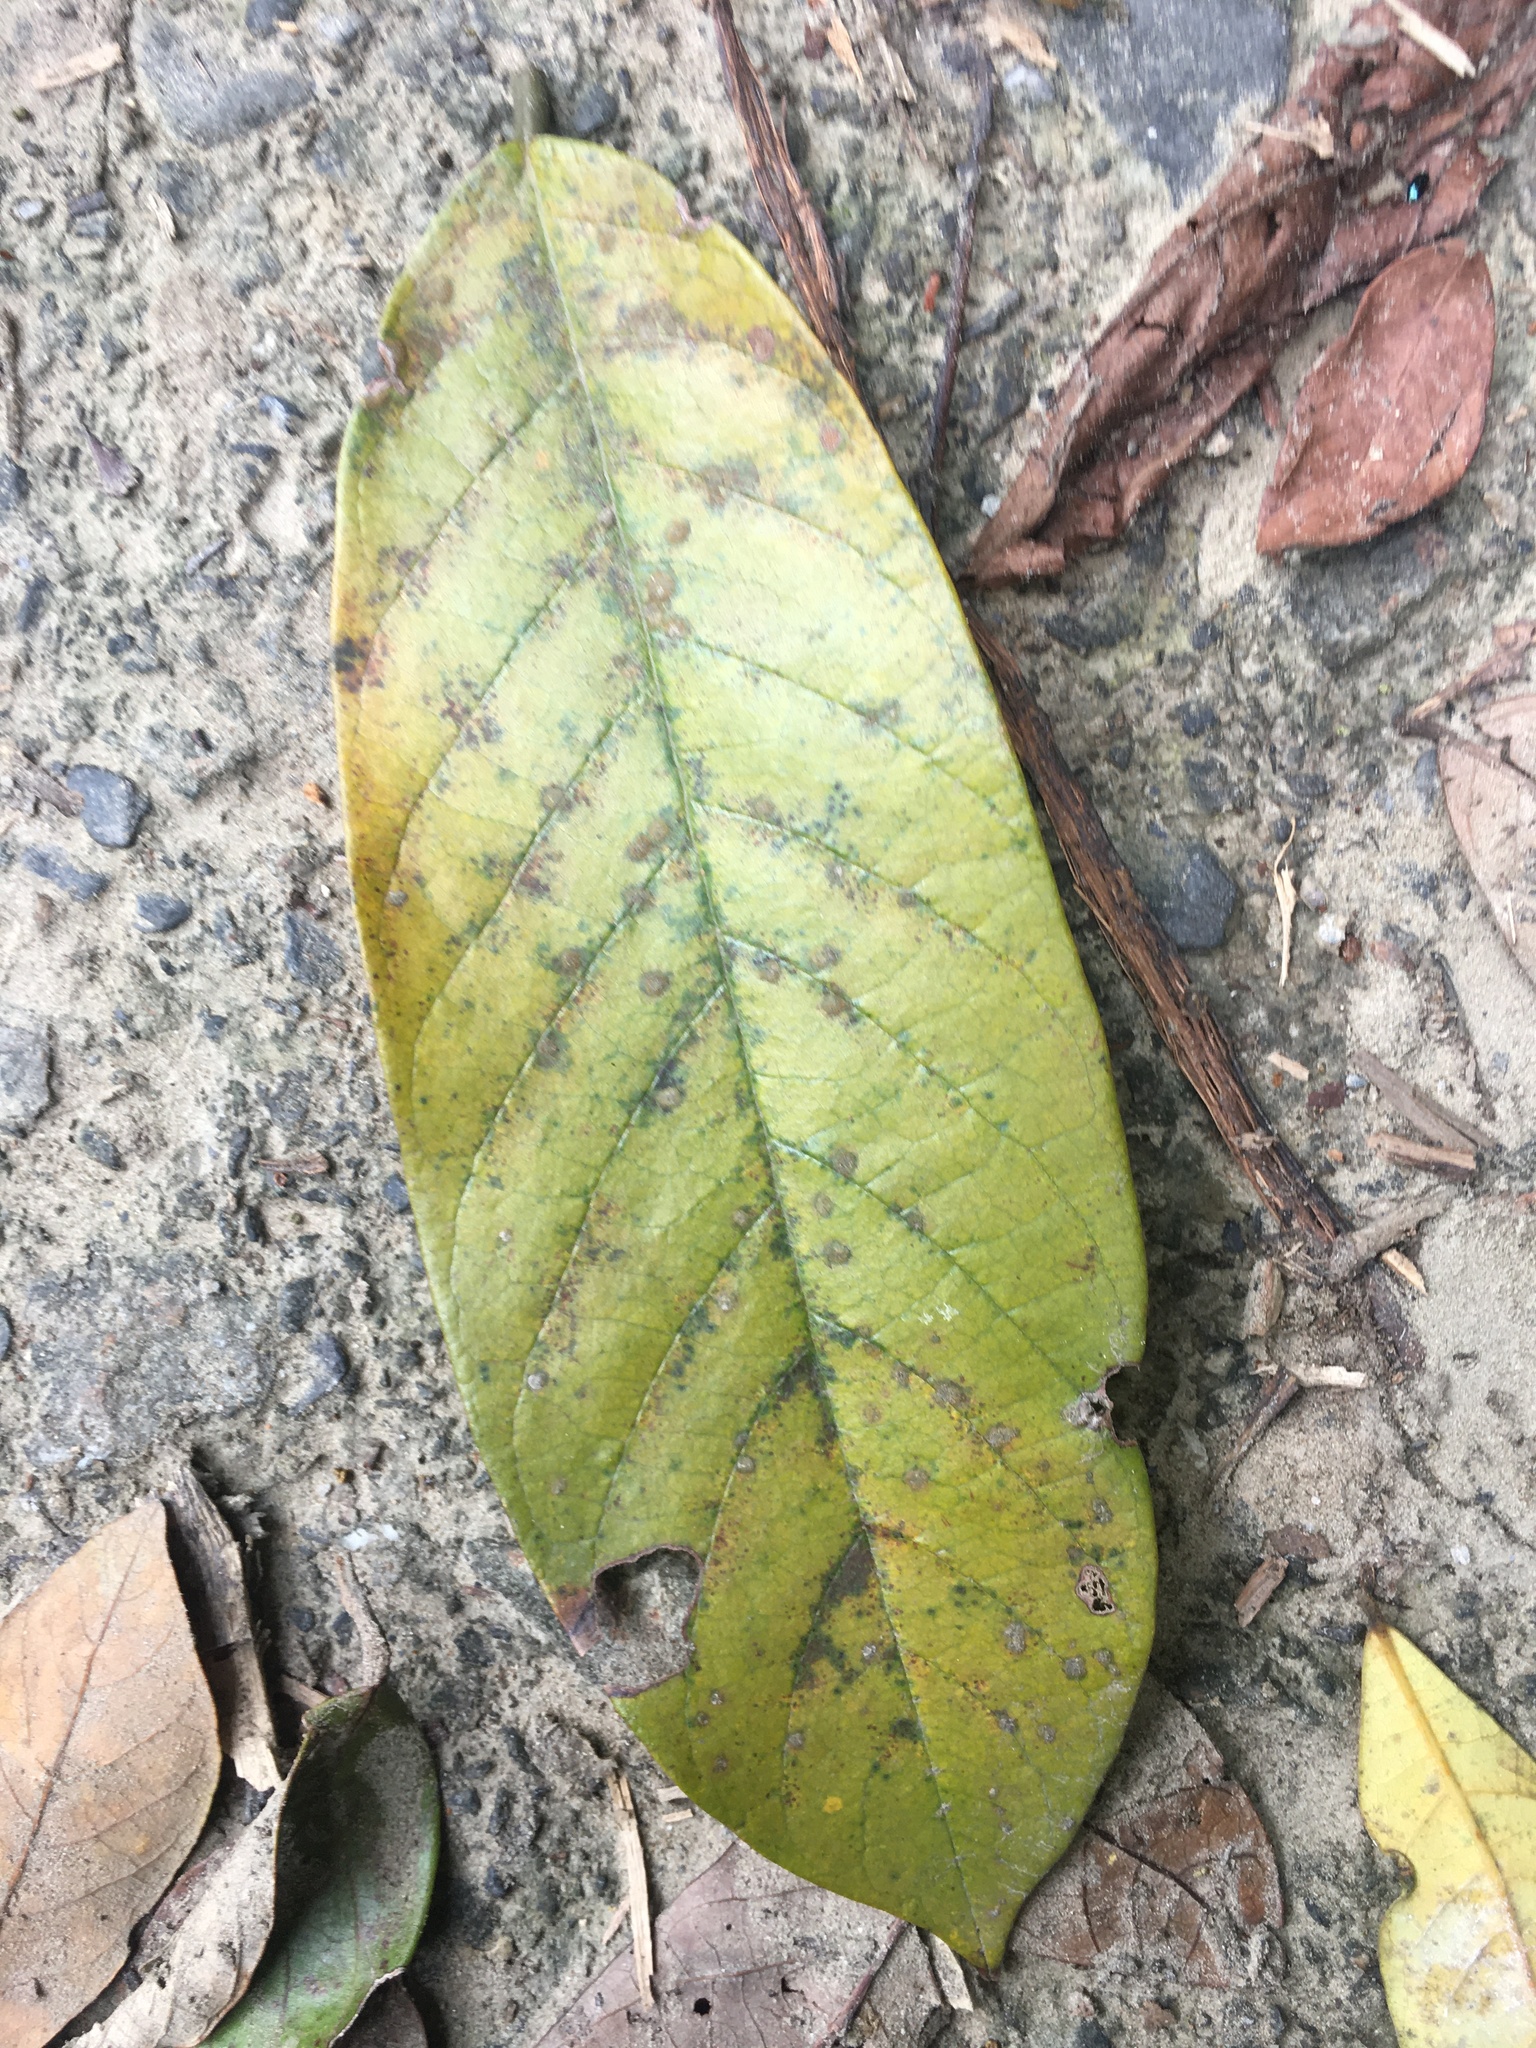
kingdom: Plantae
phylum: Tracheophyta
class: Magnoliopsida
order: Fabales
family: Fabaceae
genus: Millettia
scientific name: Millettia pachycarpa
